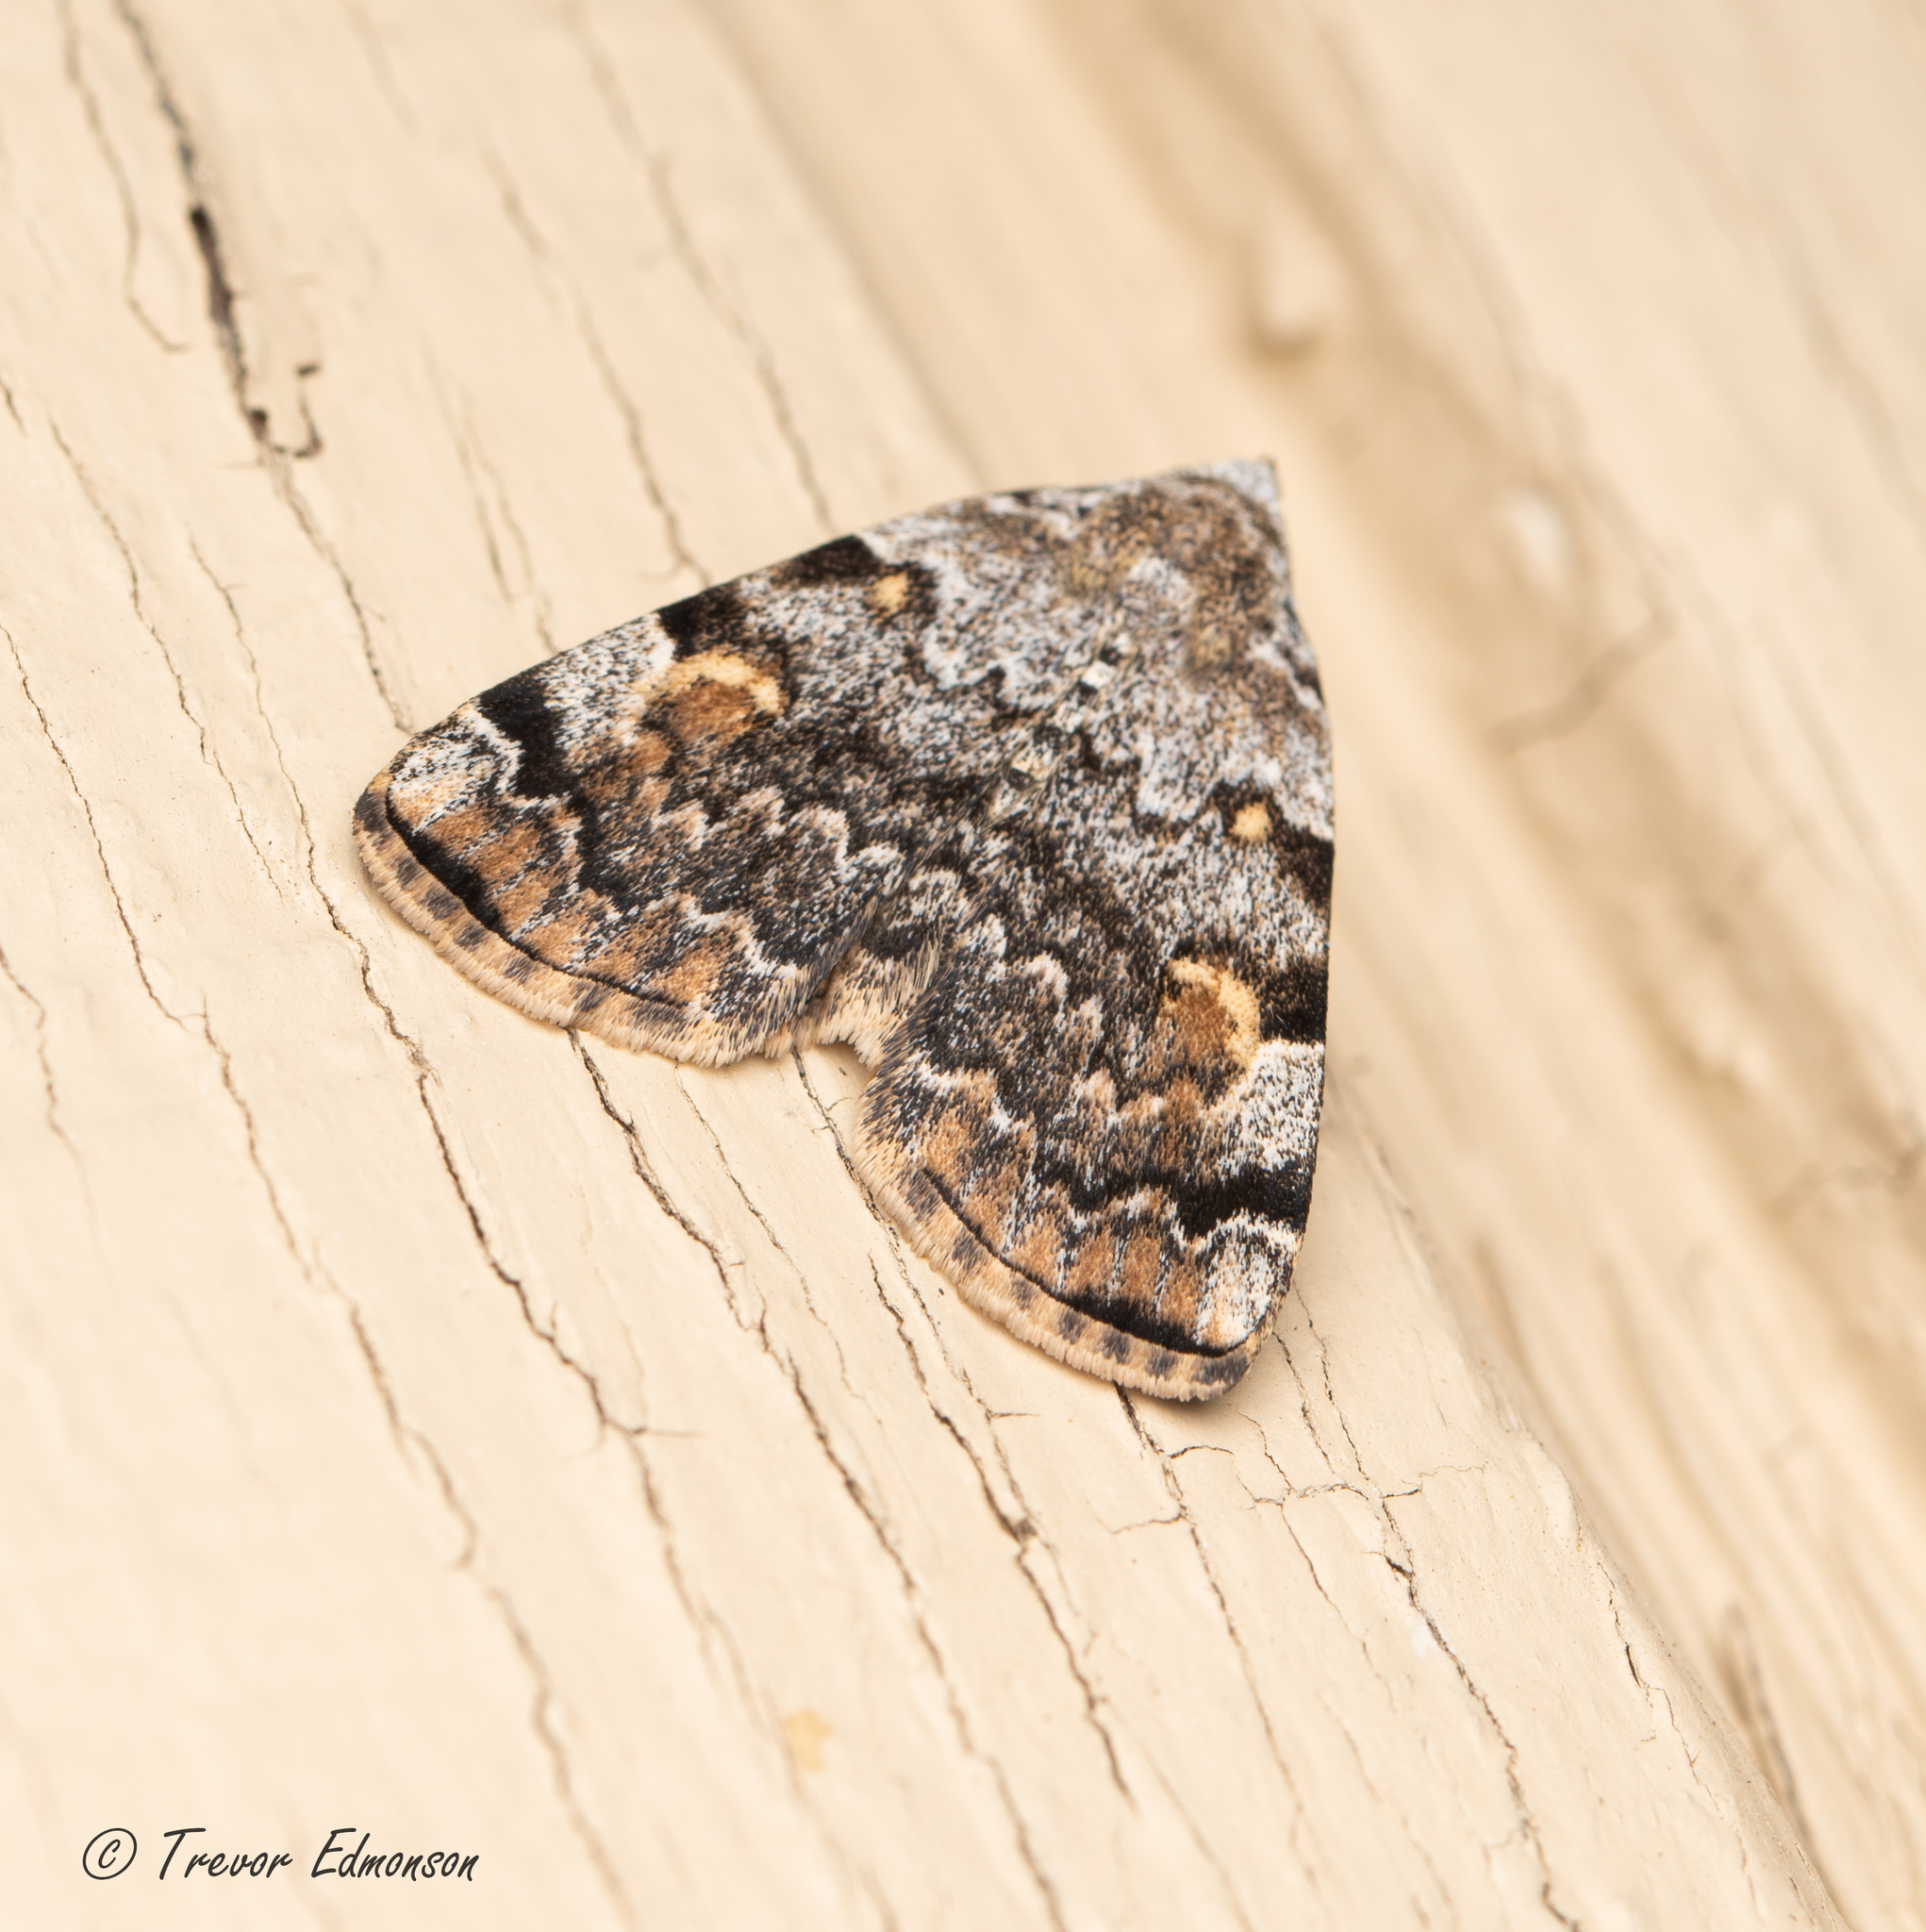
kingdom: Animalia
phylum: Arthropoda
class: Insecta
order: Lepidoptera
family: Erebidae
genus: Idia
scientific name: Idia americalis
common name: American idia moth
